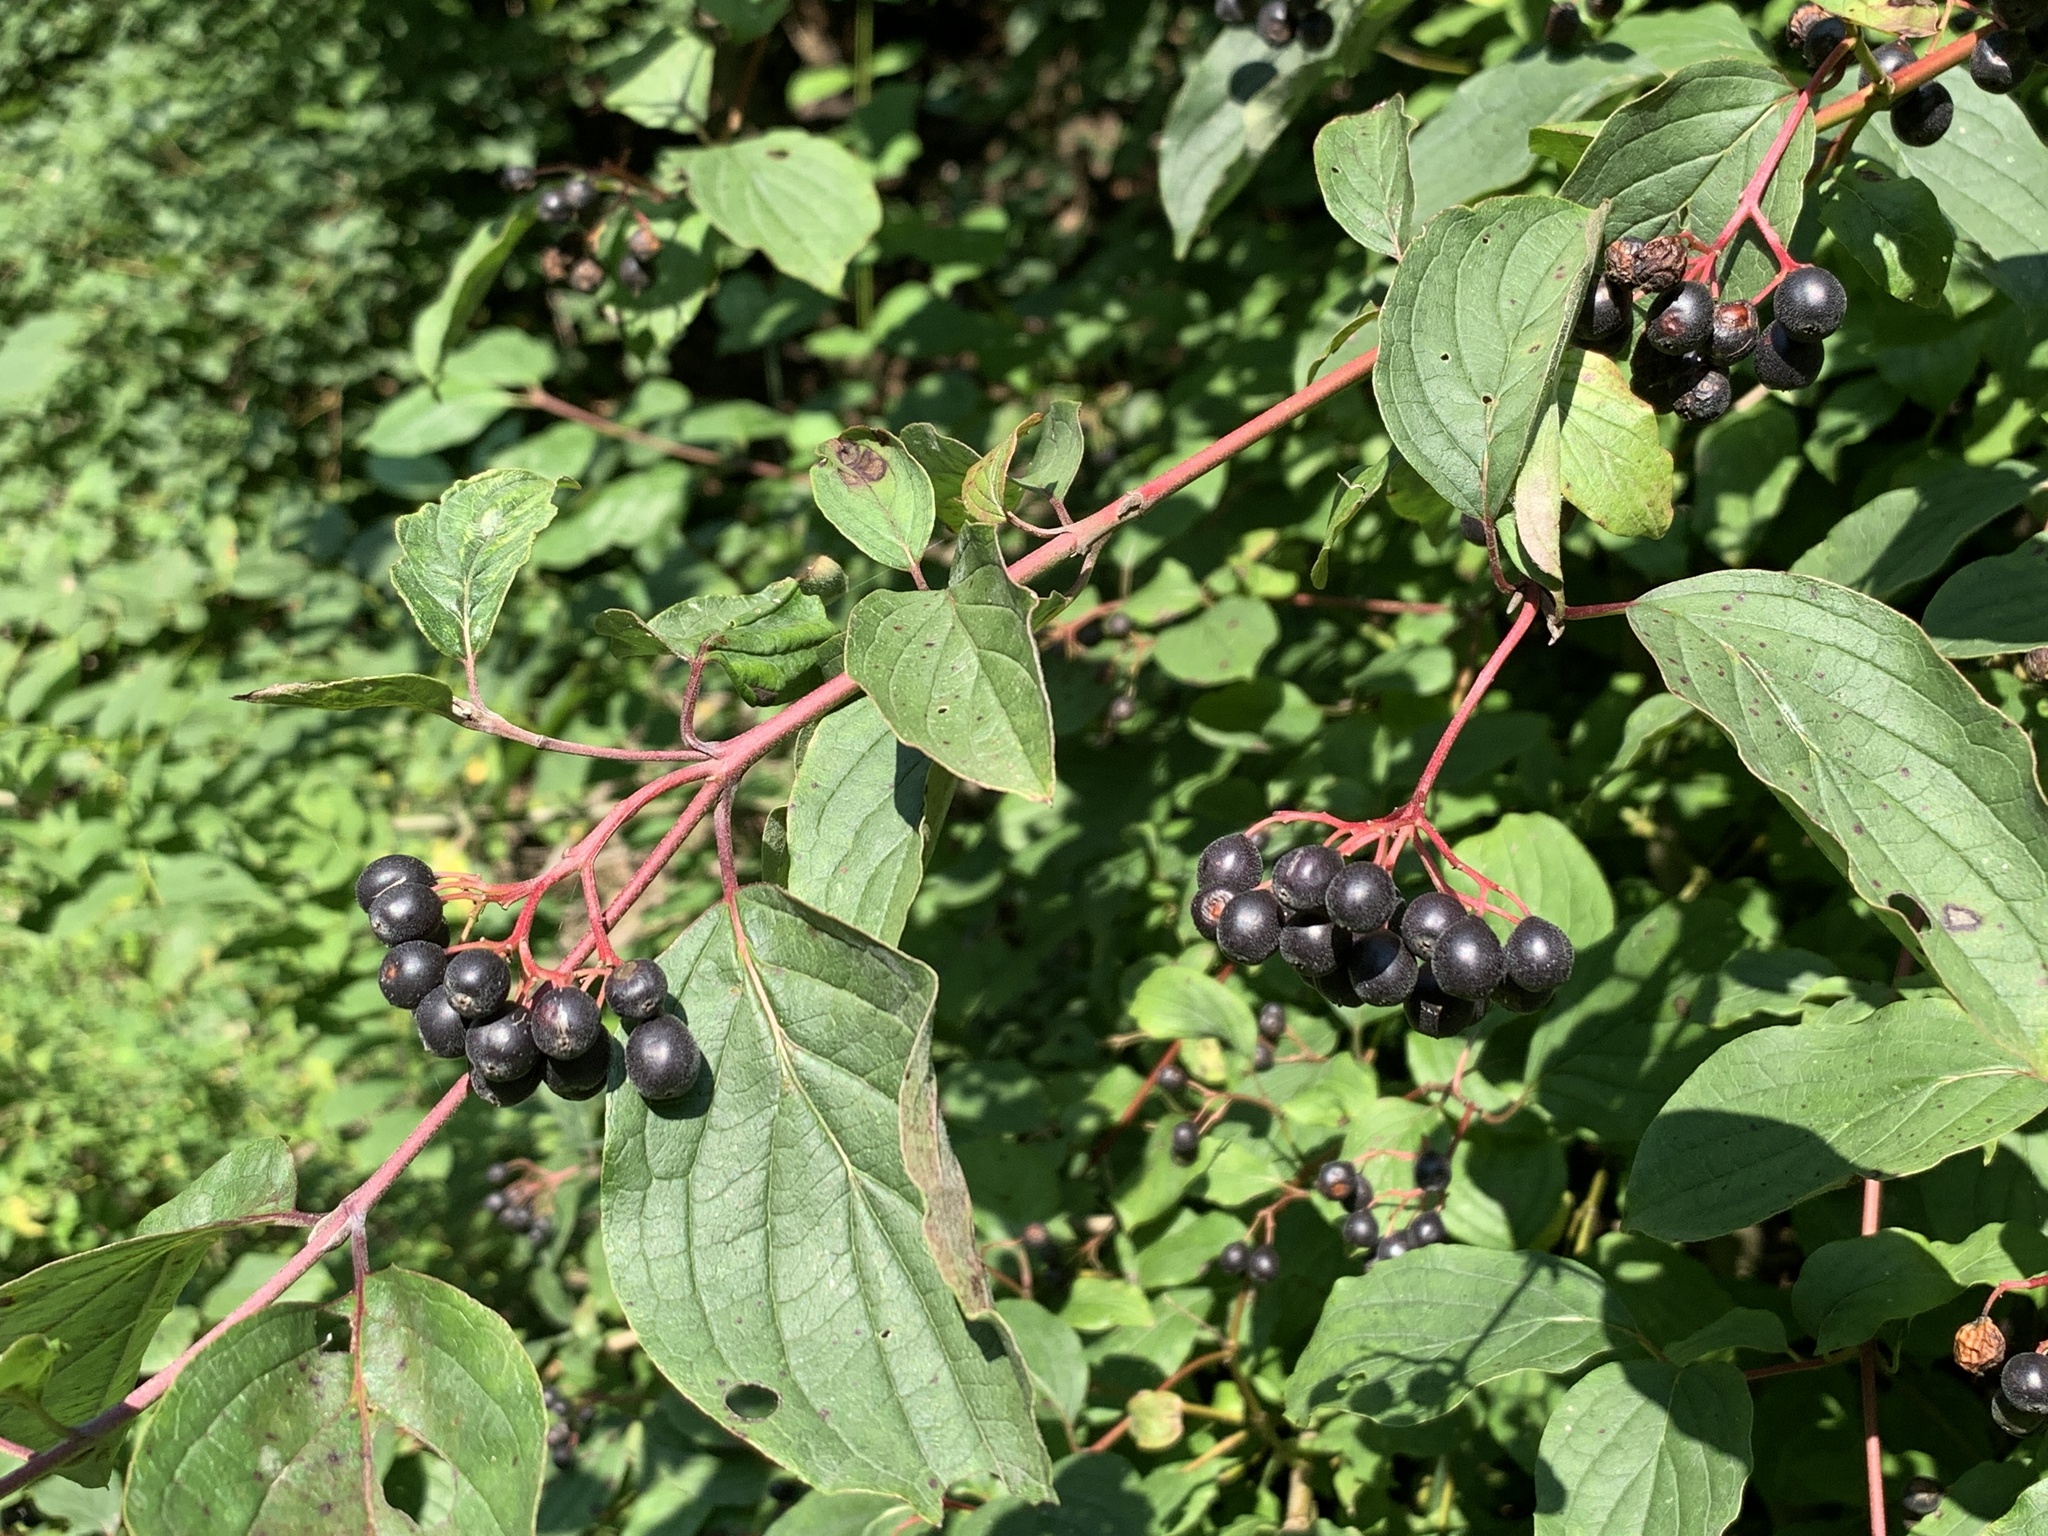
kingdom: Plantae
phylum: Tracheophyta
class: Magnoliopsida
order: Cornales
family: Cornaceae
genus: Cornus
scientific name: Cornus sanguinea
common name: Dogwood
